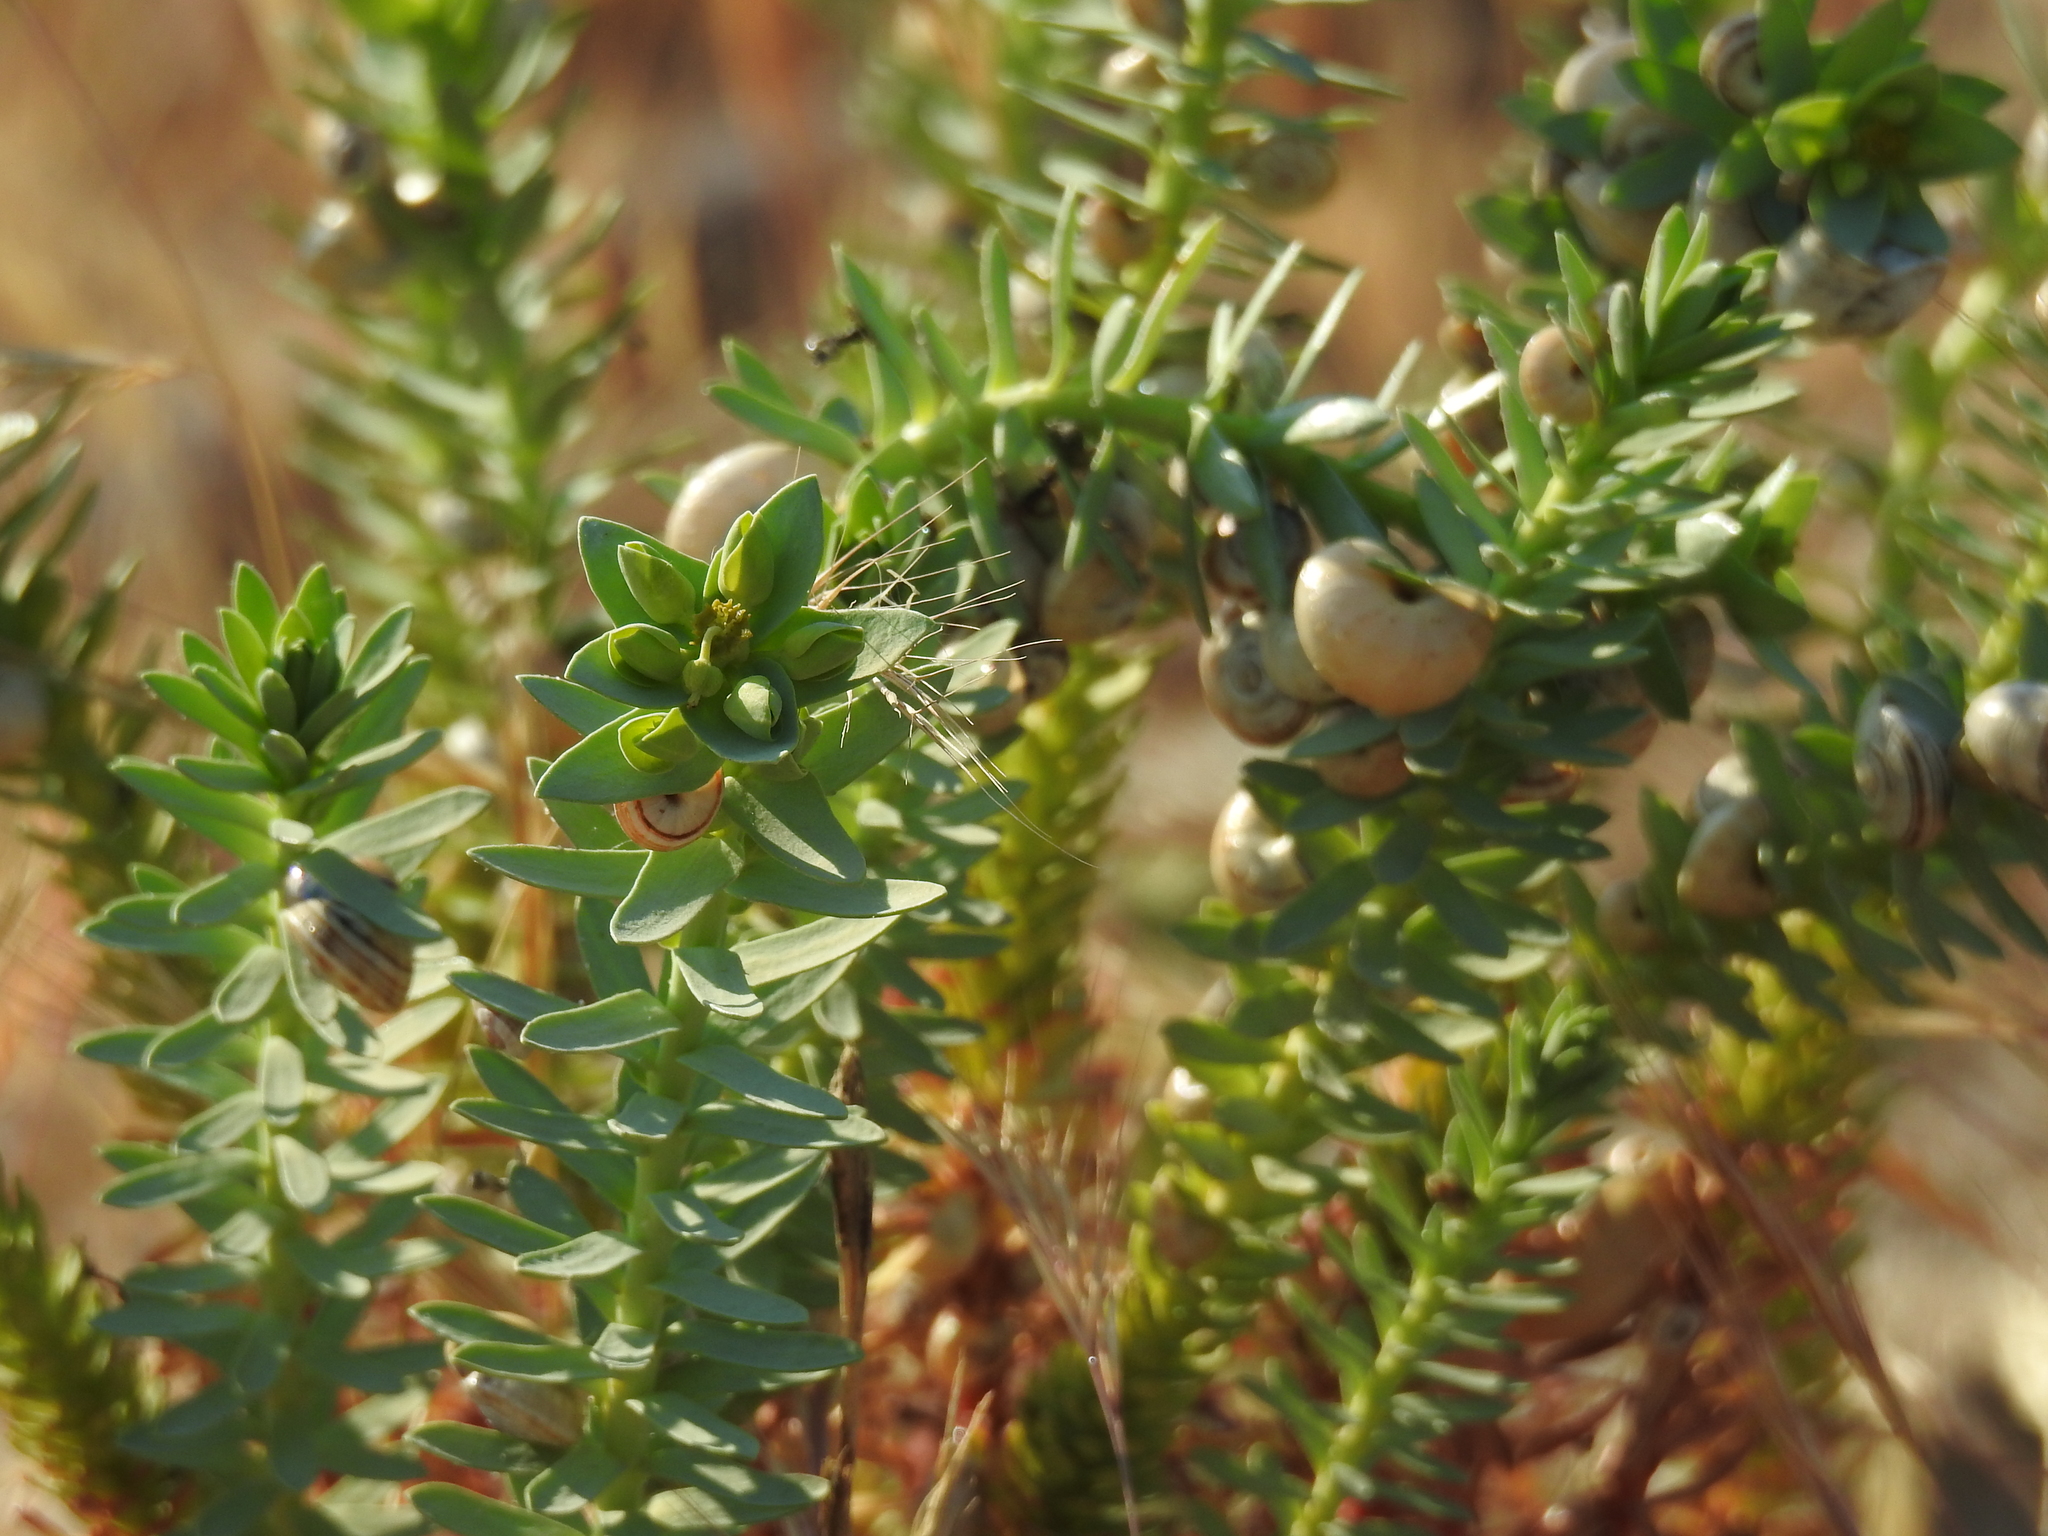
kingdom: Plantae
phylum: Tracheophyta
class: Magnoliopsida
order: Malpighiales
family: Euphorbiaceae
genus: Euphorbia
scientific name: Euphorbia paralias
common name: Sea spurge
